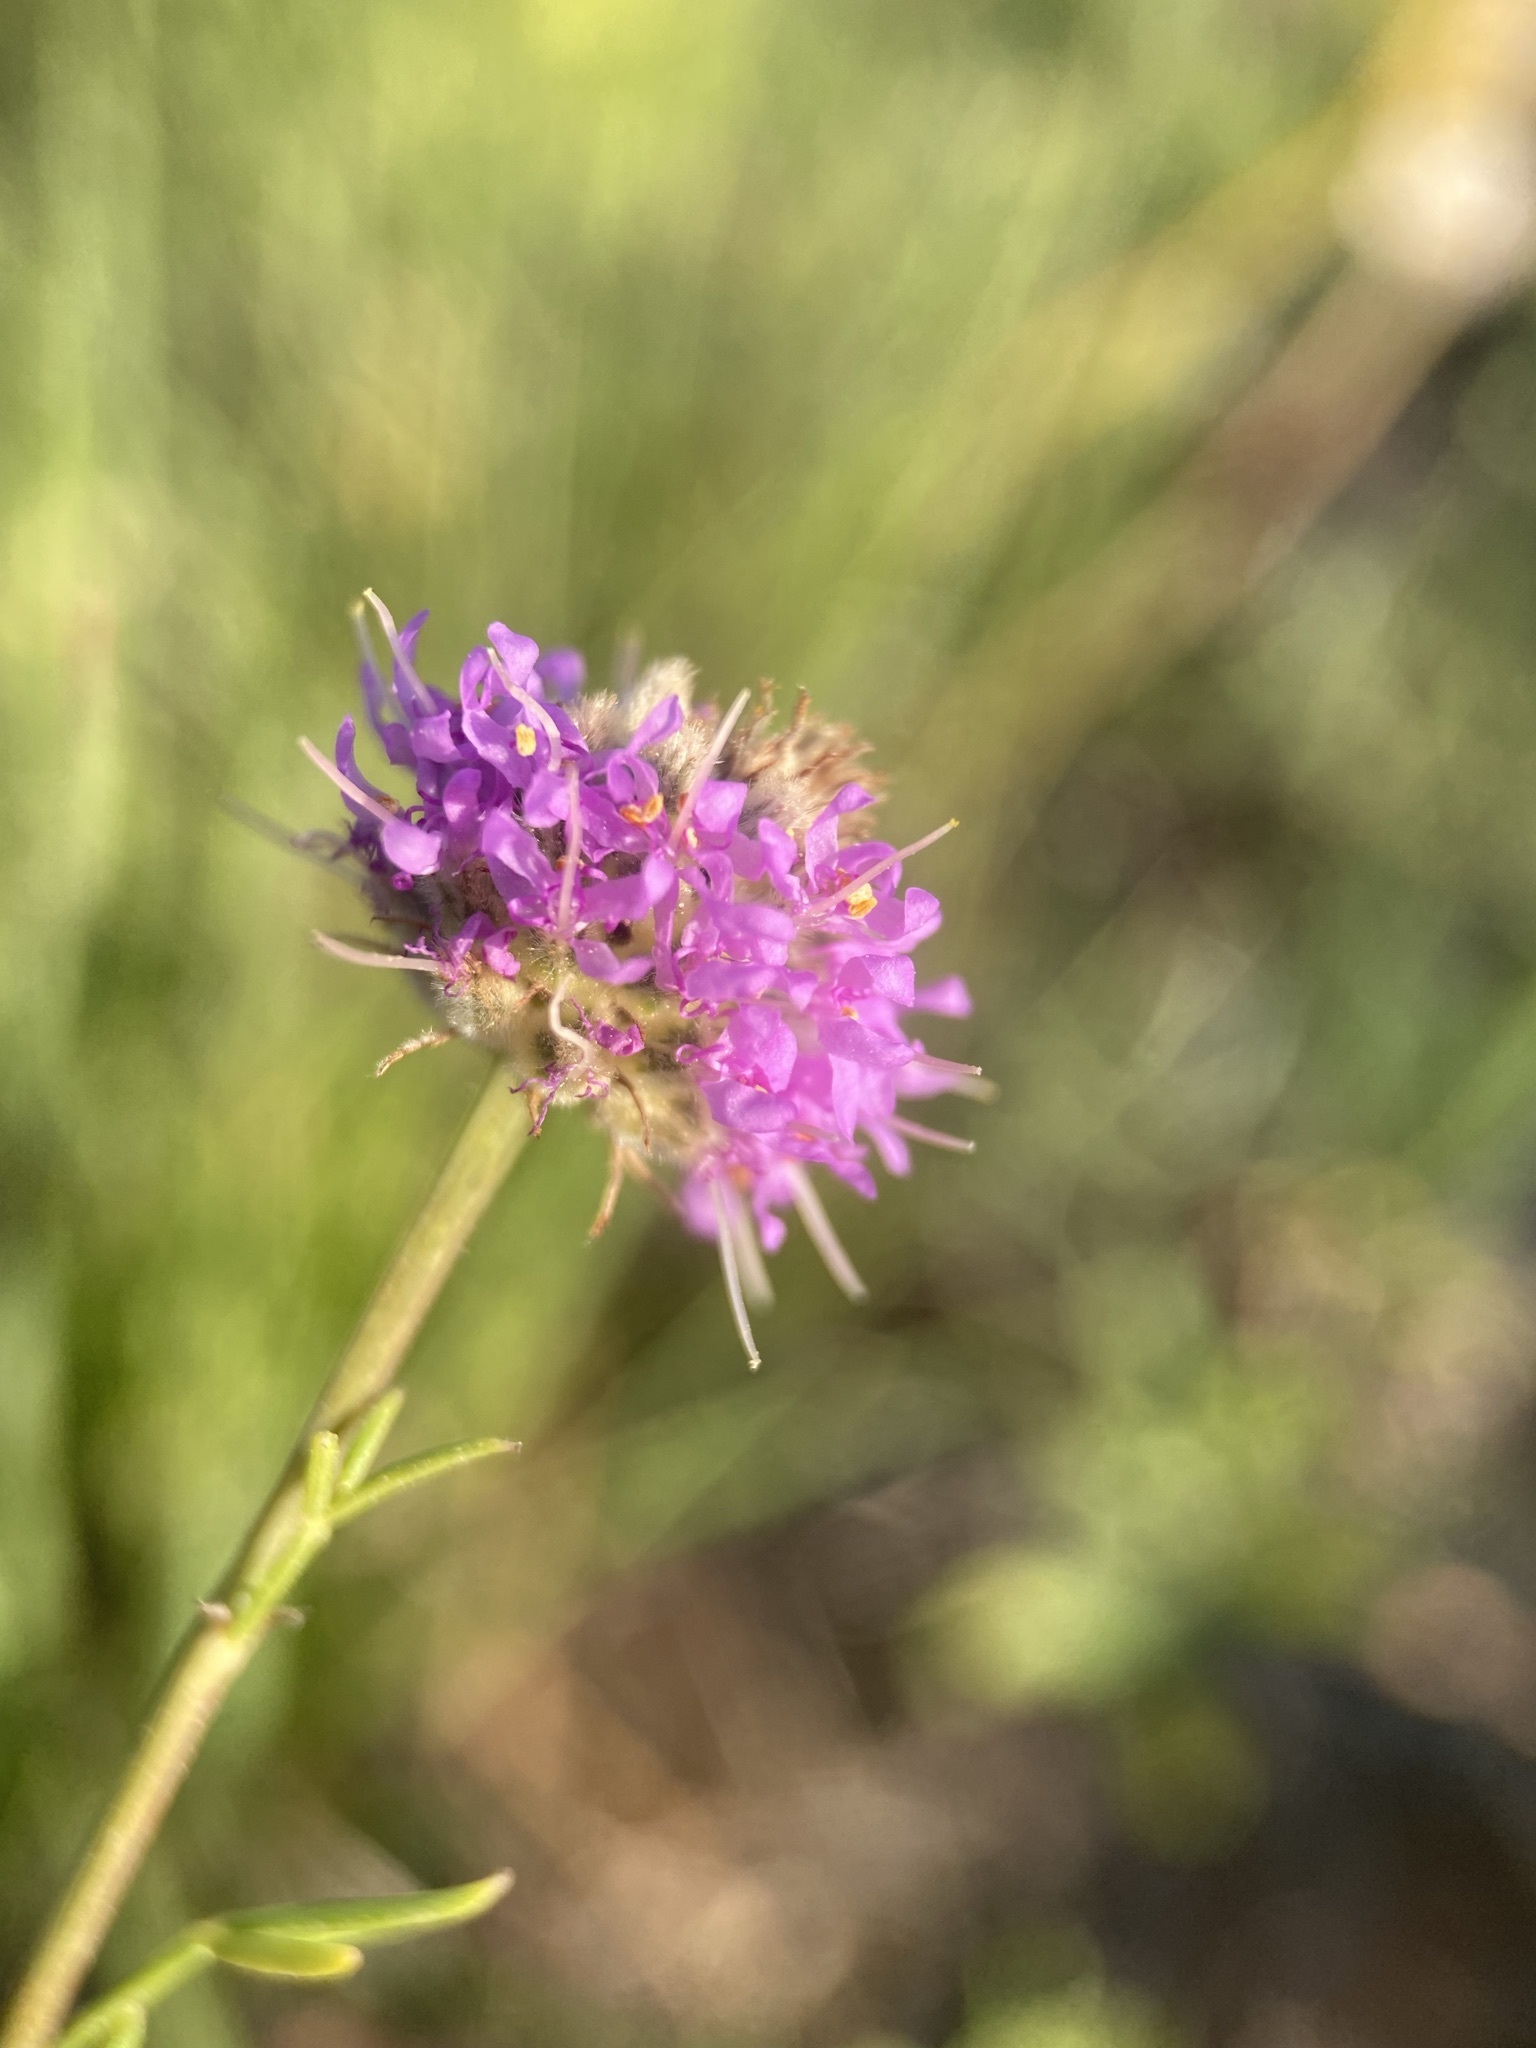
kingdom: Plantae
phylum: Tracheophyta
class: Magnoliopsida
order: Fabales
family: Fabaceae
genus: Dalea
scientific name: Dalea purpurea
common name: Purple prairie-clover
